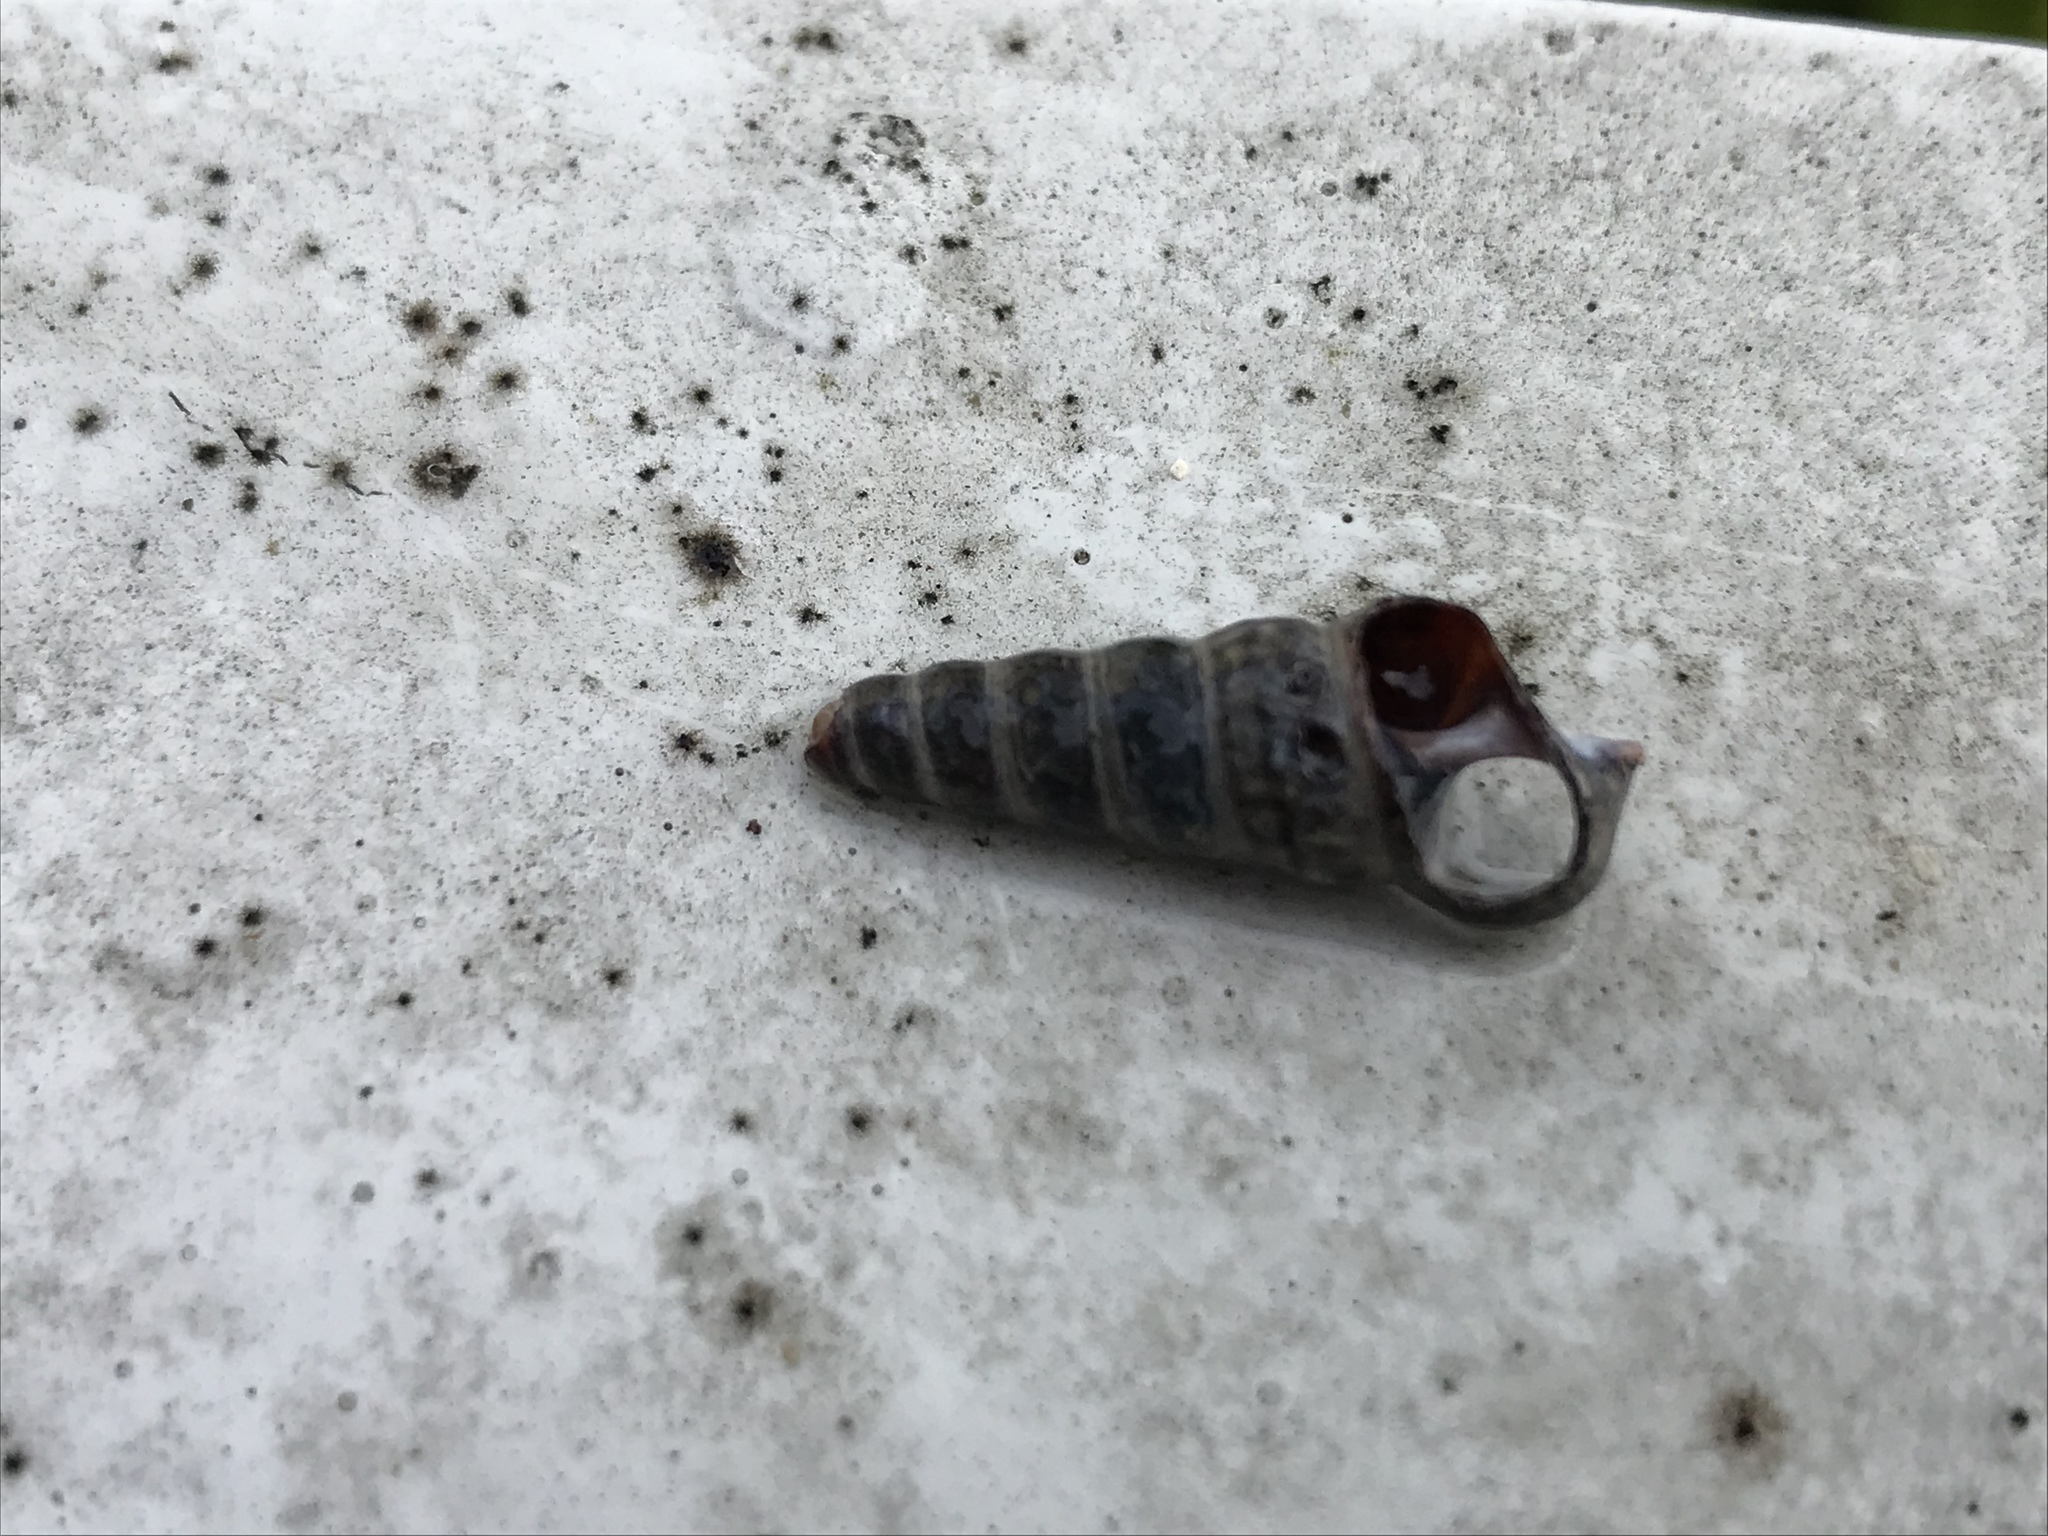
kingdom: Animalia
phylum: Mollusca
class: Gastropoda
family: Potamididae
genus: Cerithideopsis
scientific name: Cerithideopsis californica
